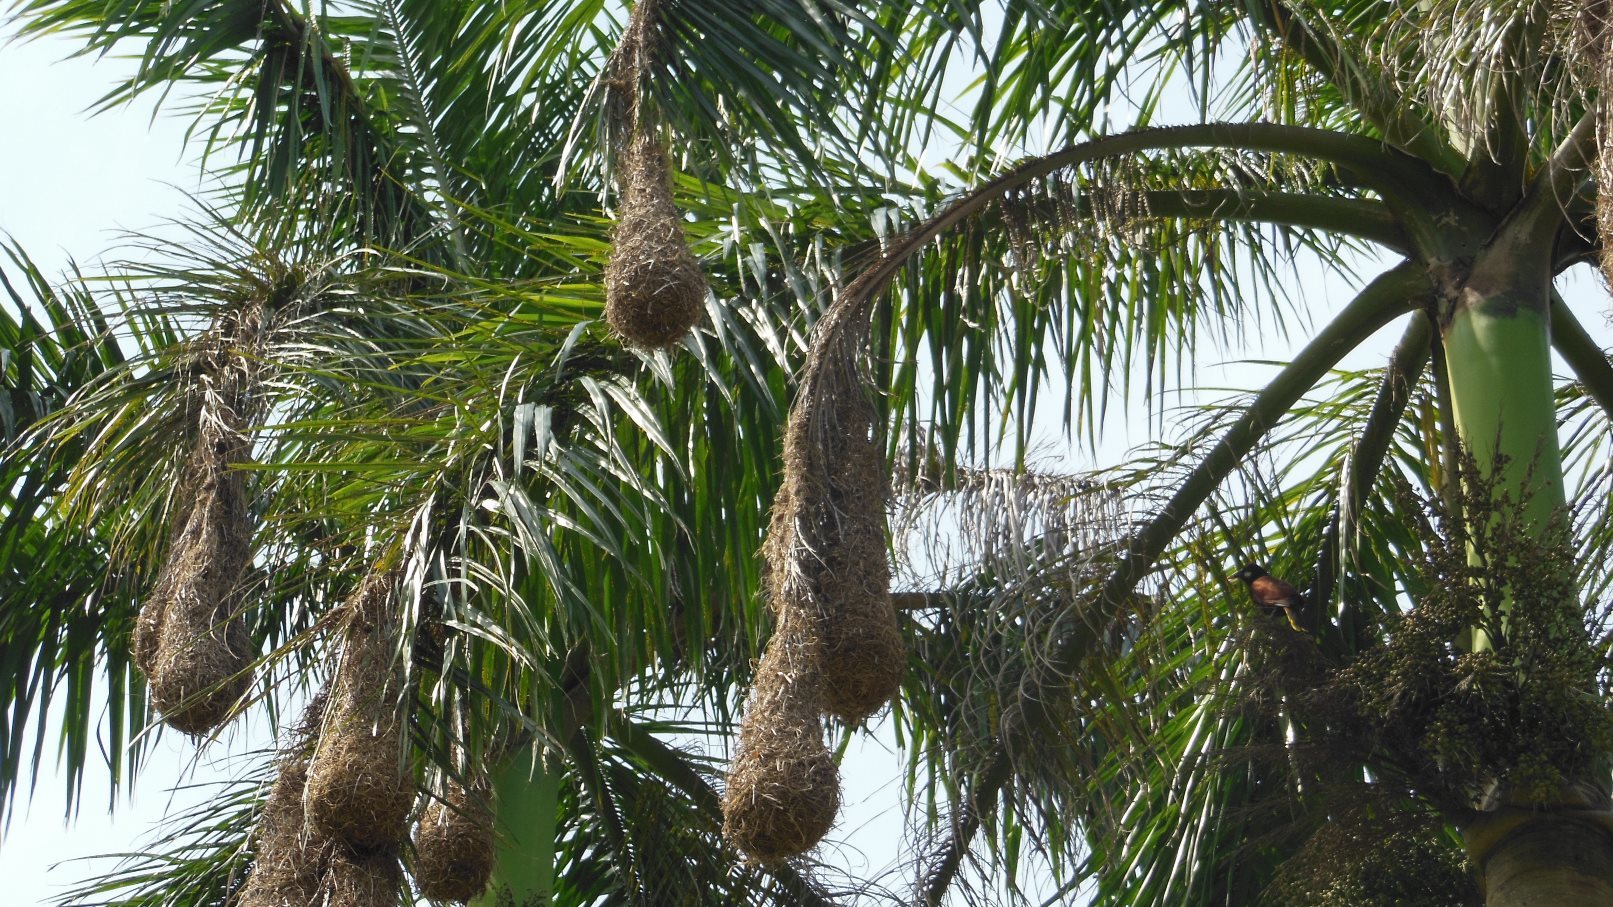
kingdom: Animalia
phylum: Chordata
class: Aves
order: Passeriformes
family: Icteridae
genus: Psarocolius
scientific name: Psarocolius montezuma
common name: Montezuma oropendola
